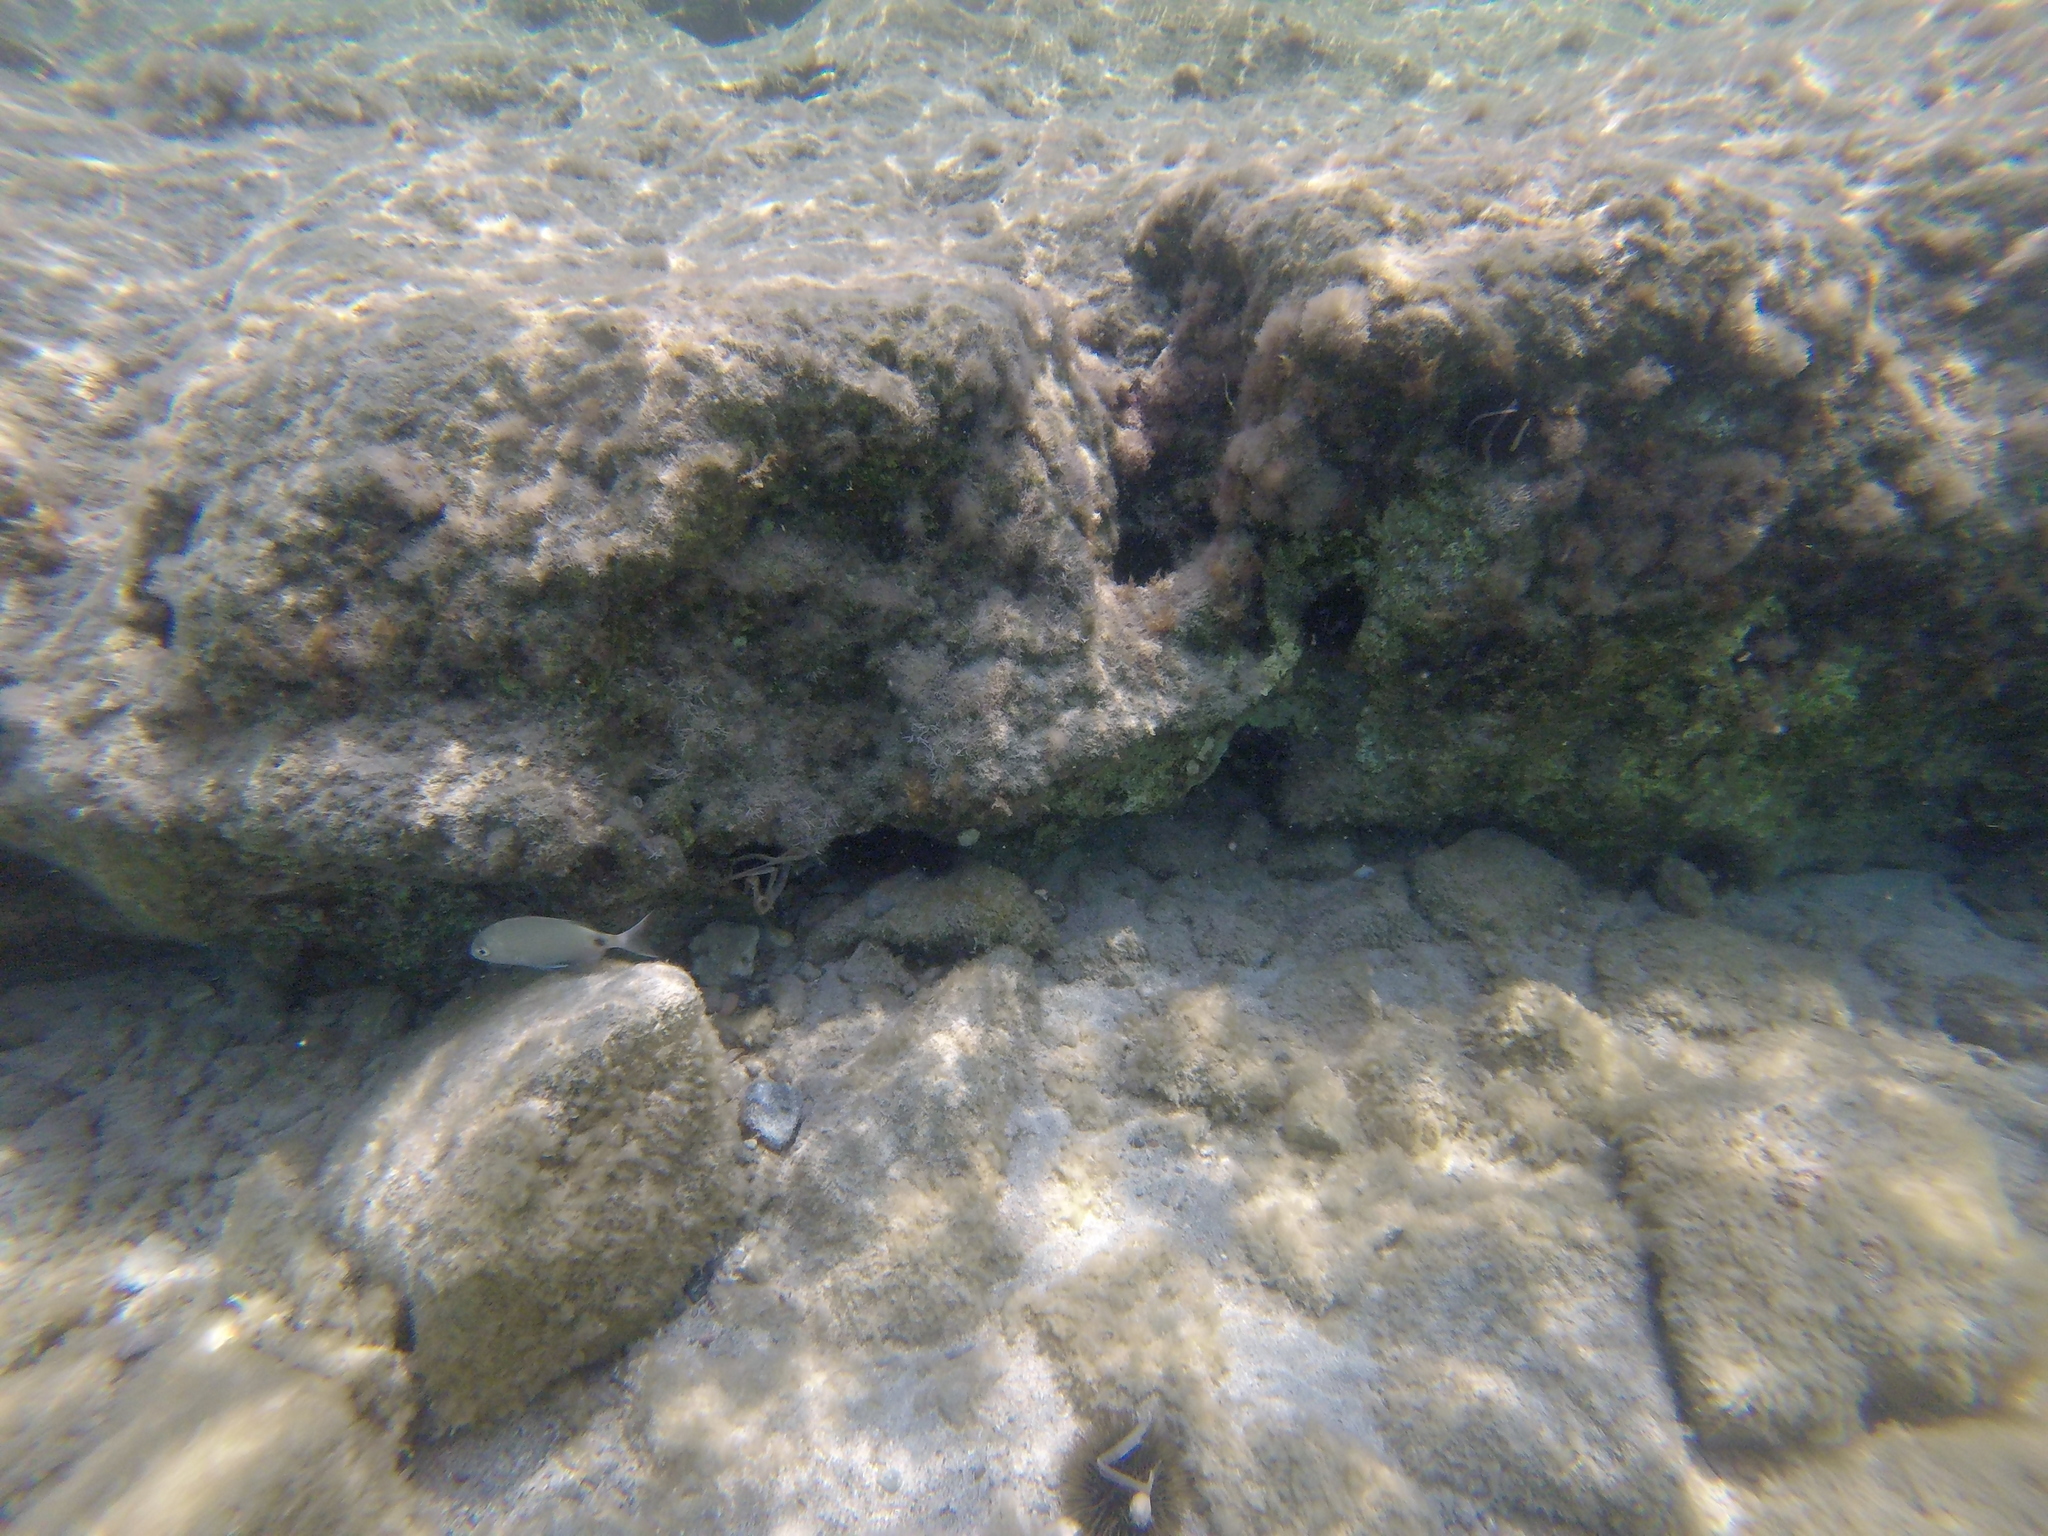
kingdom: Animalia
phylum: Chordata
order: Perciformes
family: Sparidae
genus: Diplodus
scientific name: Diplodus sargus
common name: White seabream
